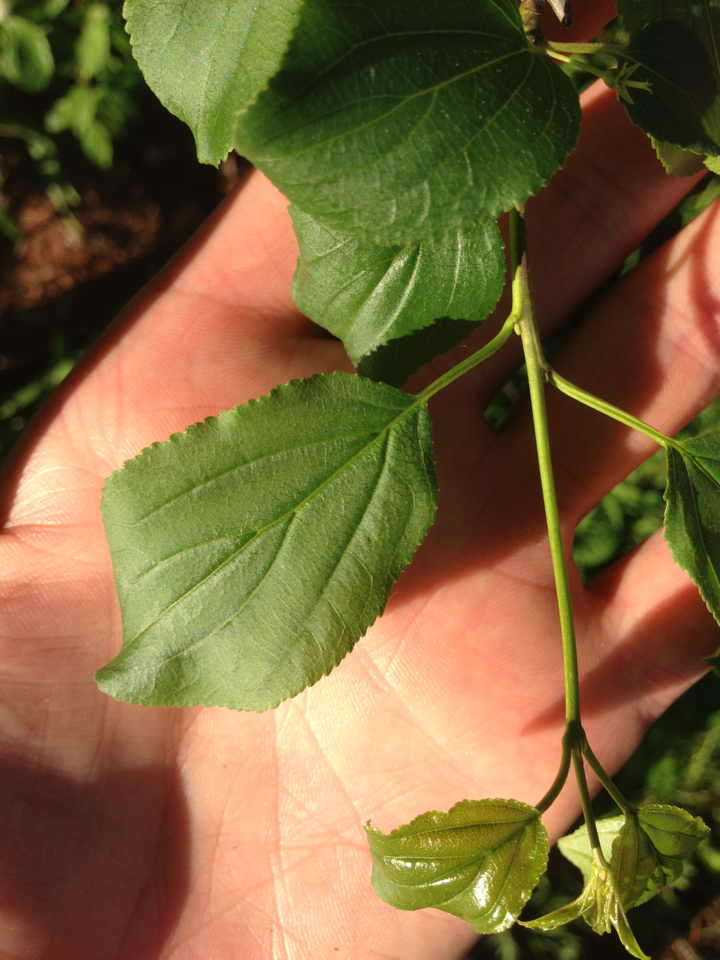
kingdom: Plantae
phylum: Tracheophyta
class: Magnoliopsida
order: Rosales
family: Rhamnaceae
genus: Rhamnus
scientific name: Rhamnus cathartica
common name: Common buckthorn
